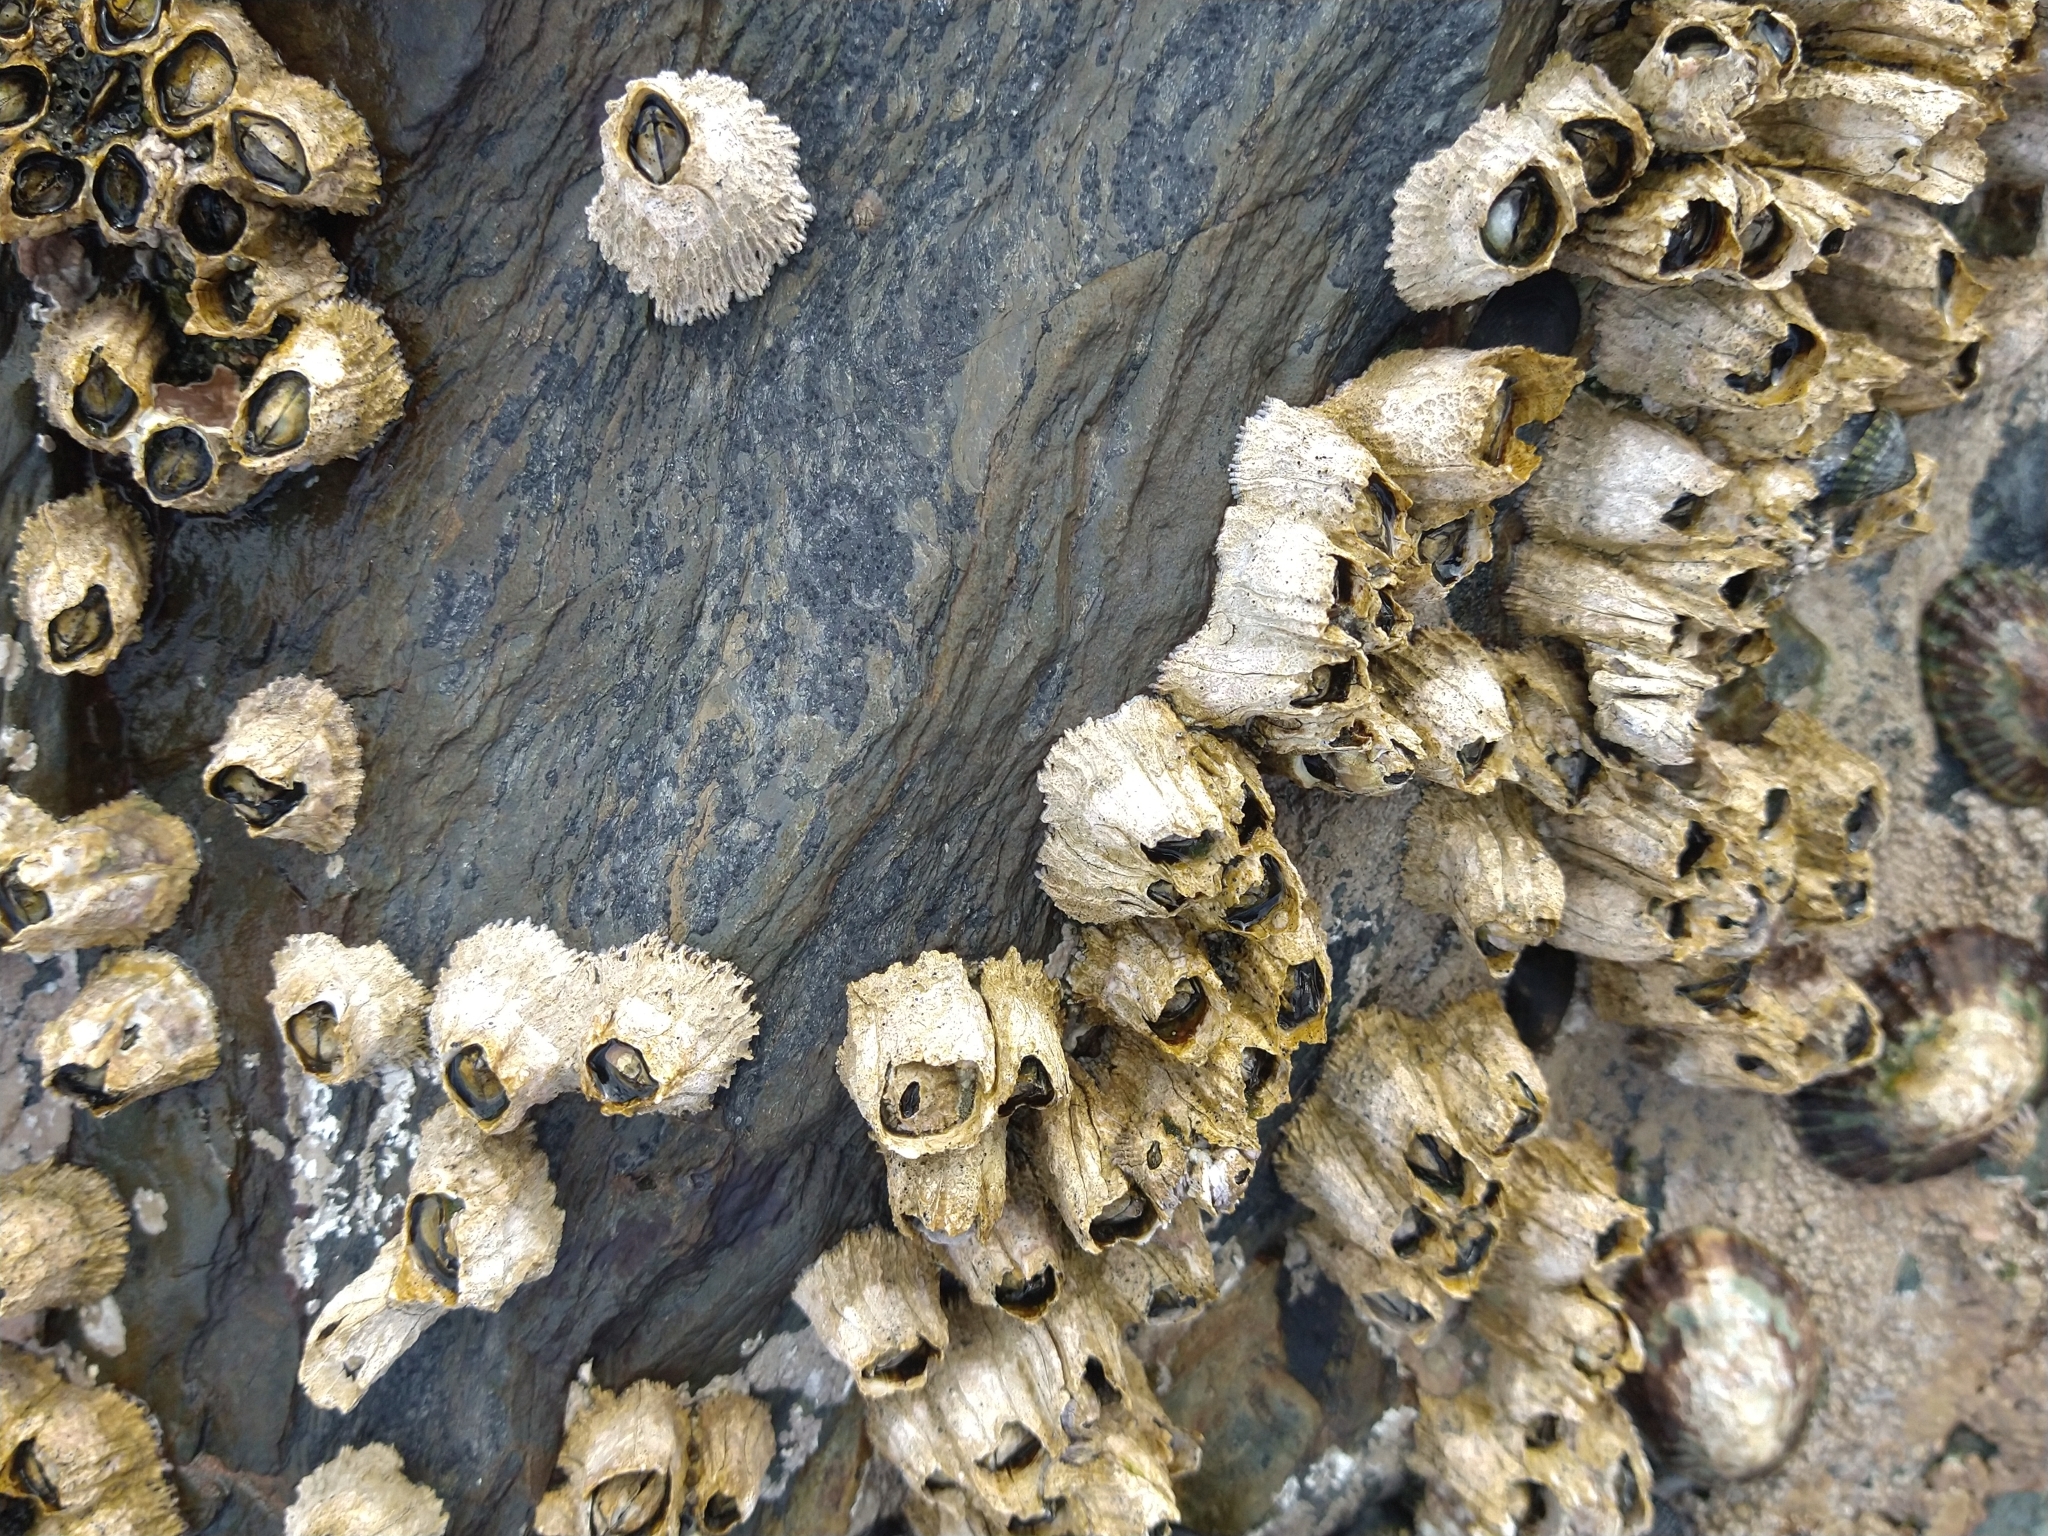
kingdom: Animalia
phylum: Arthropoda
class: Maxillopoda
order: Sessilia
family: Balanidae
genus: Balanus
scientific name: Balanus glandula
